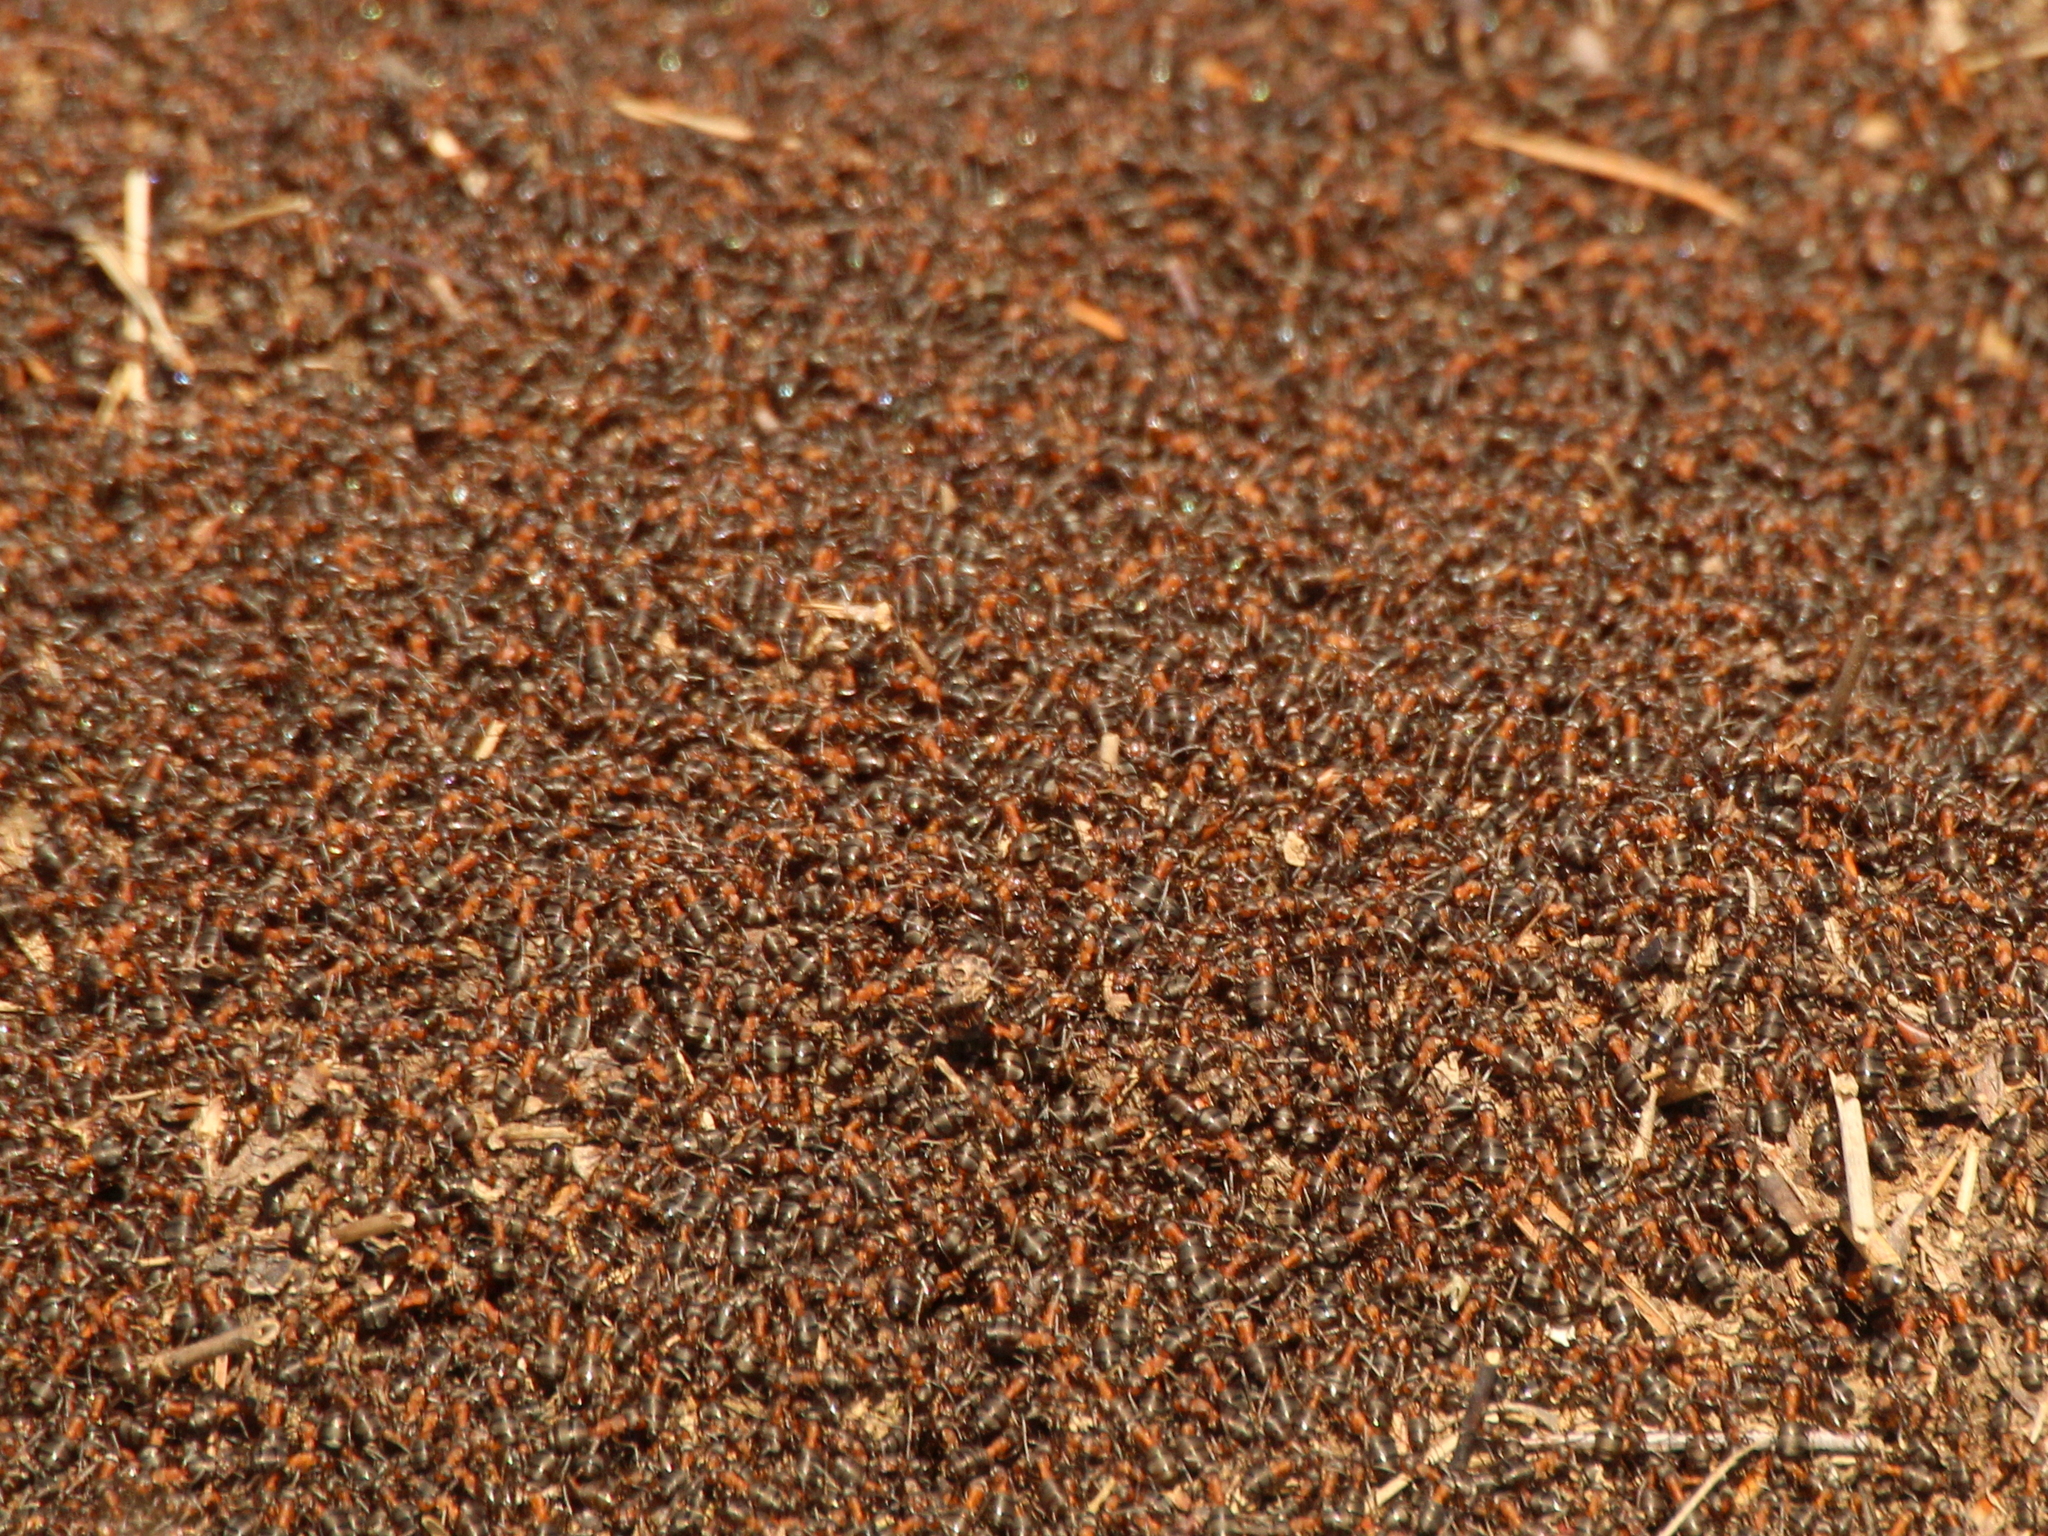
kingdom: Animalia
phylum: Arthropoda
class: Insecta
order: Hymenoptera
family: Formicidae
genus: Formica
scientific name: Formica rufa
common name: Red wood ant
